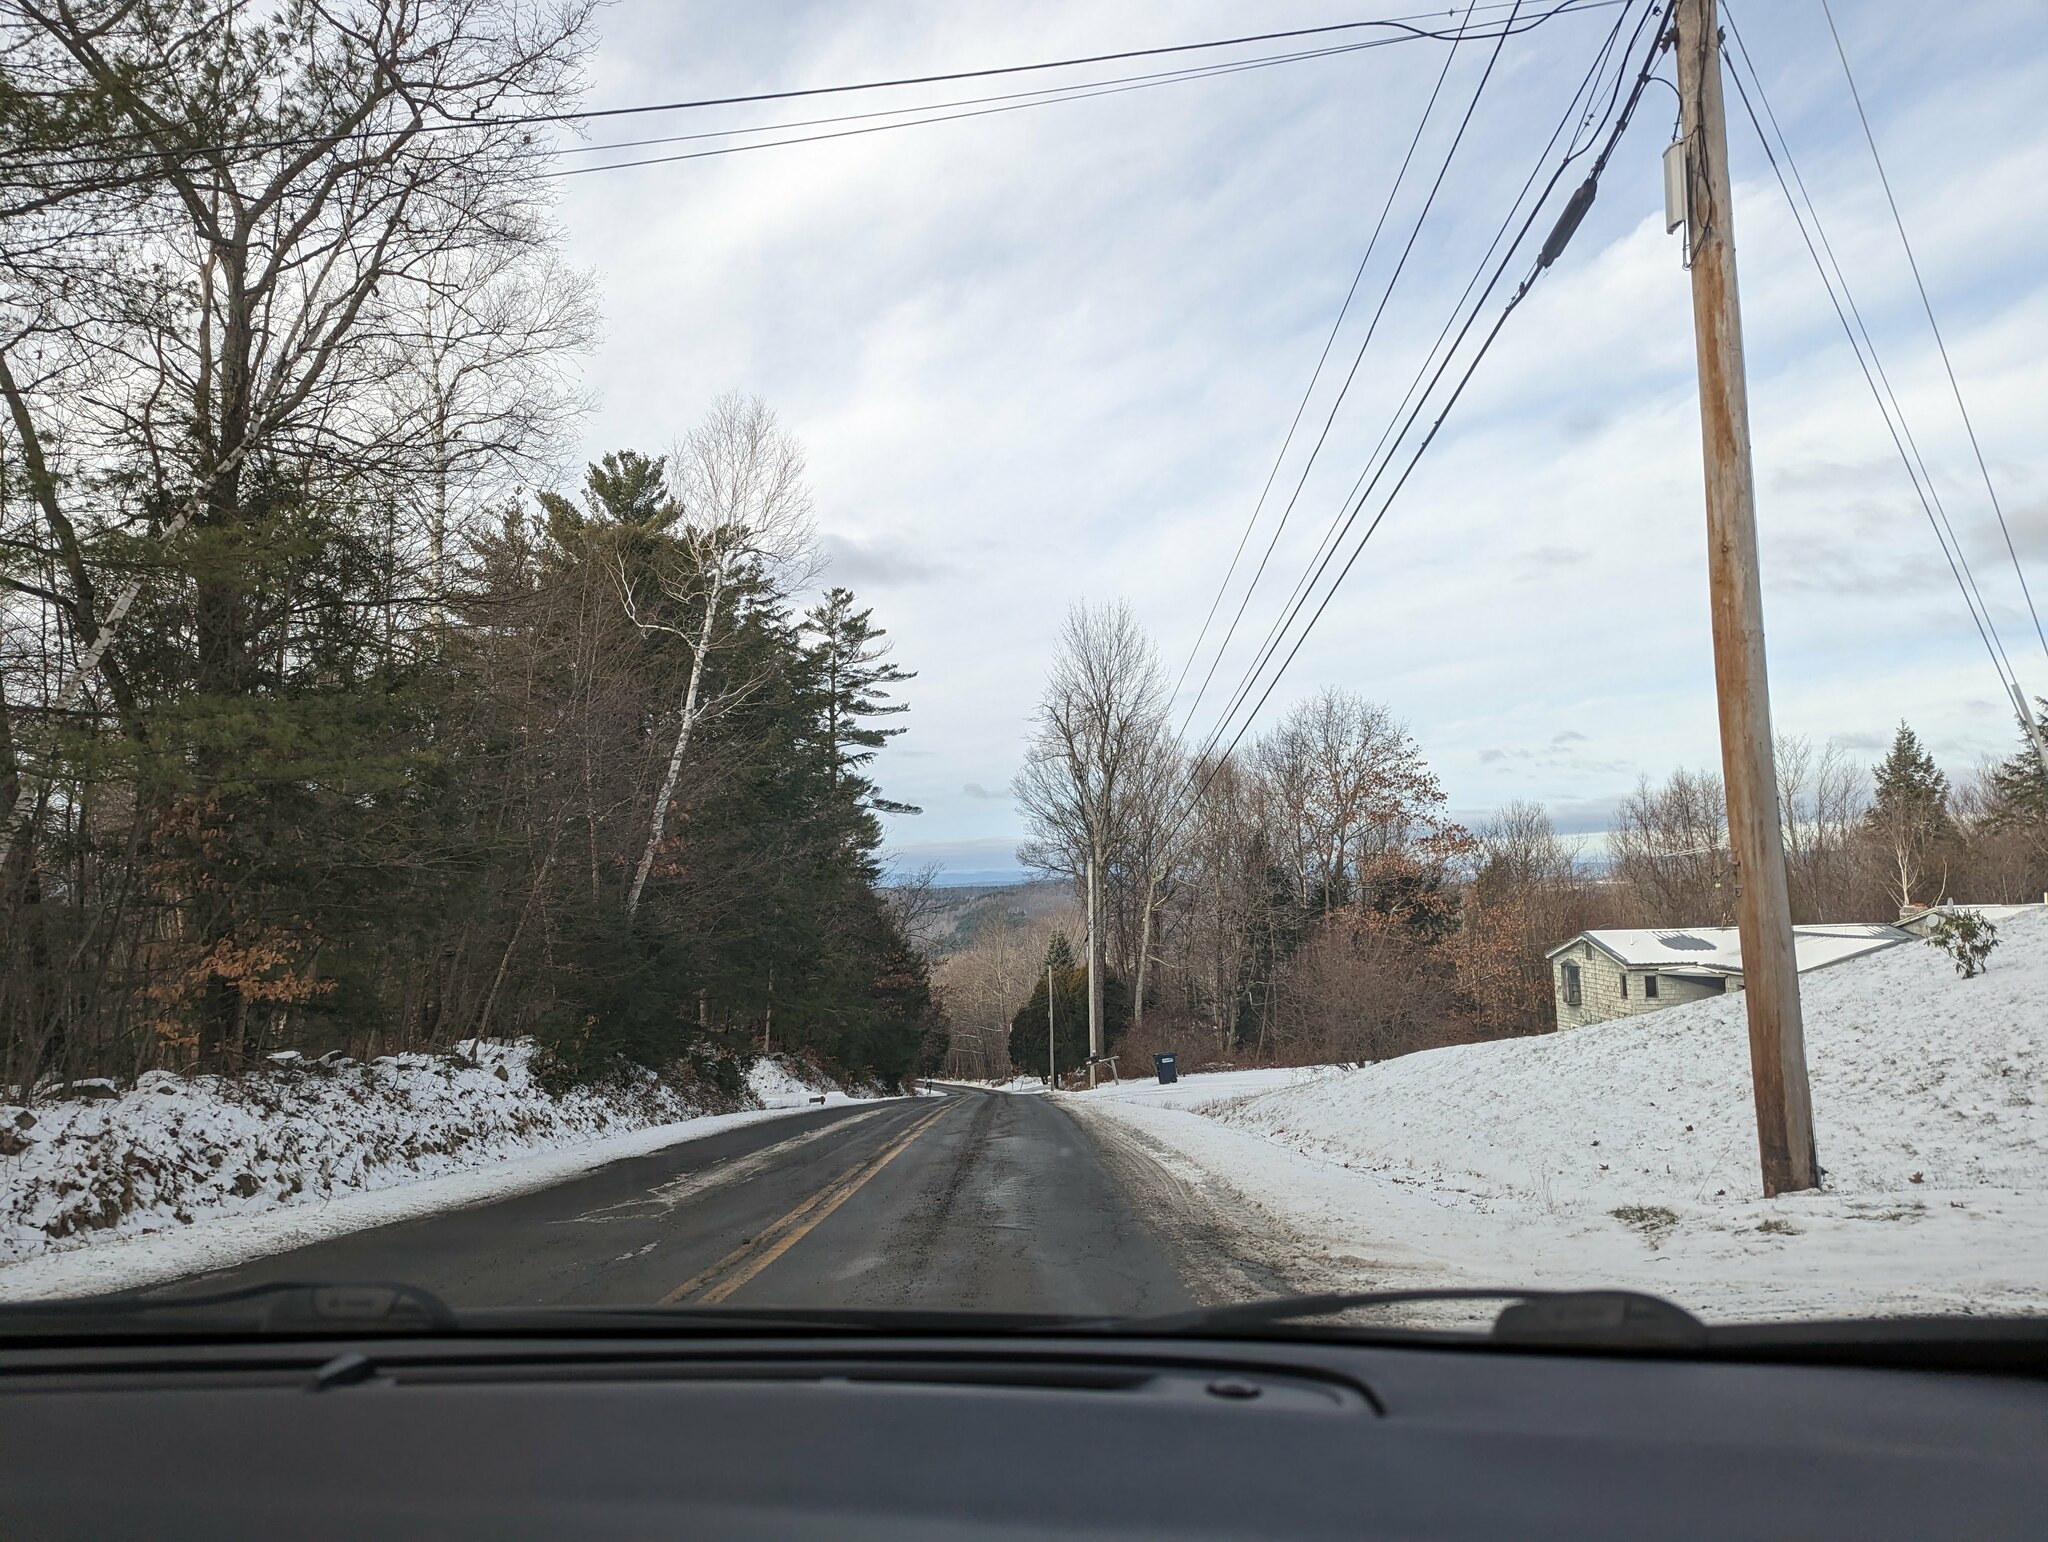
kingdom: Plantae
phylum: Tracheophyta
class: Pinopsida
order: Pinales
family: Pinaceae
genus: Pinus
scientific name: Pinus strobus
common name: Weymouth pine
